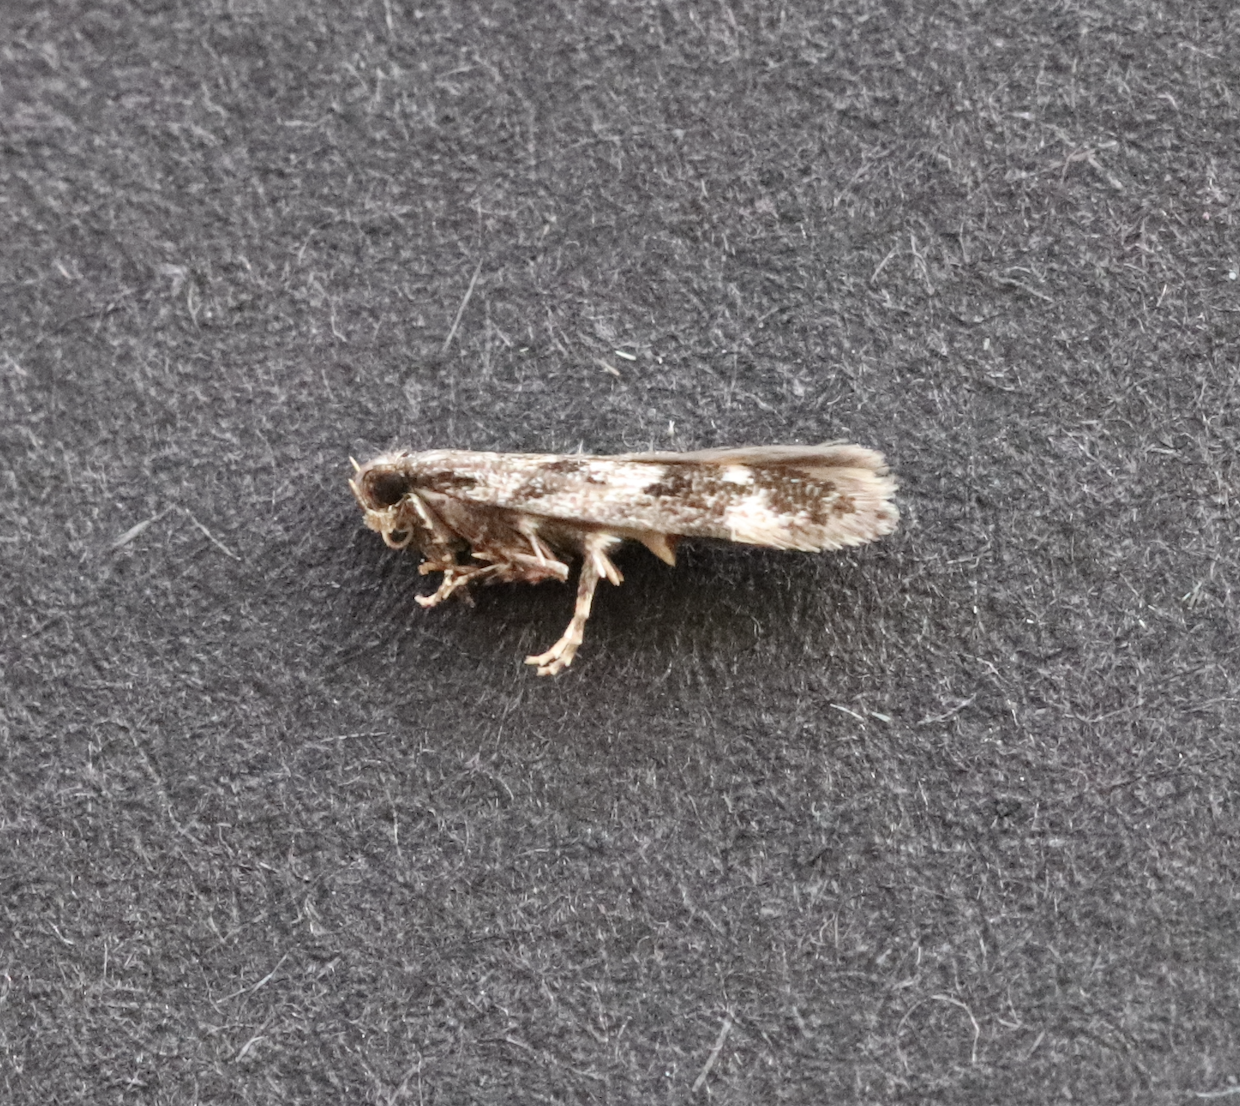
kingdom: Animalia
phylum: Arthropoda
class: Insecta
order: Lepidoptera
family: Gelechiidae
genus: Caryocolum
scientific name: Caryocolum cassella
